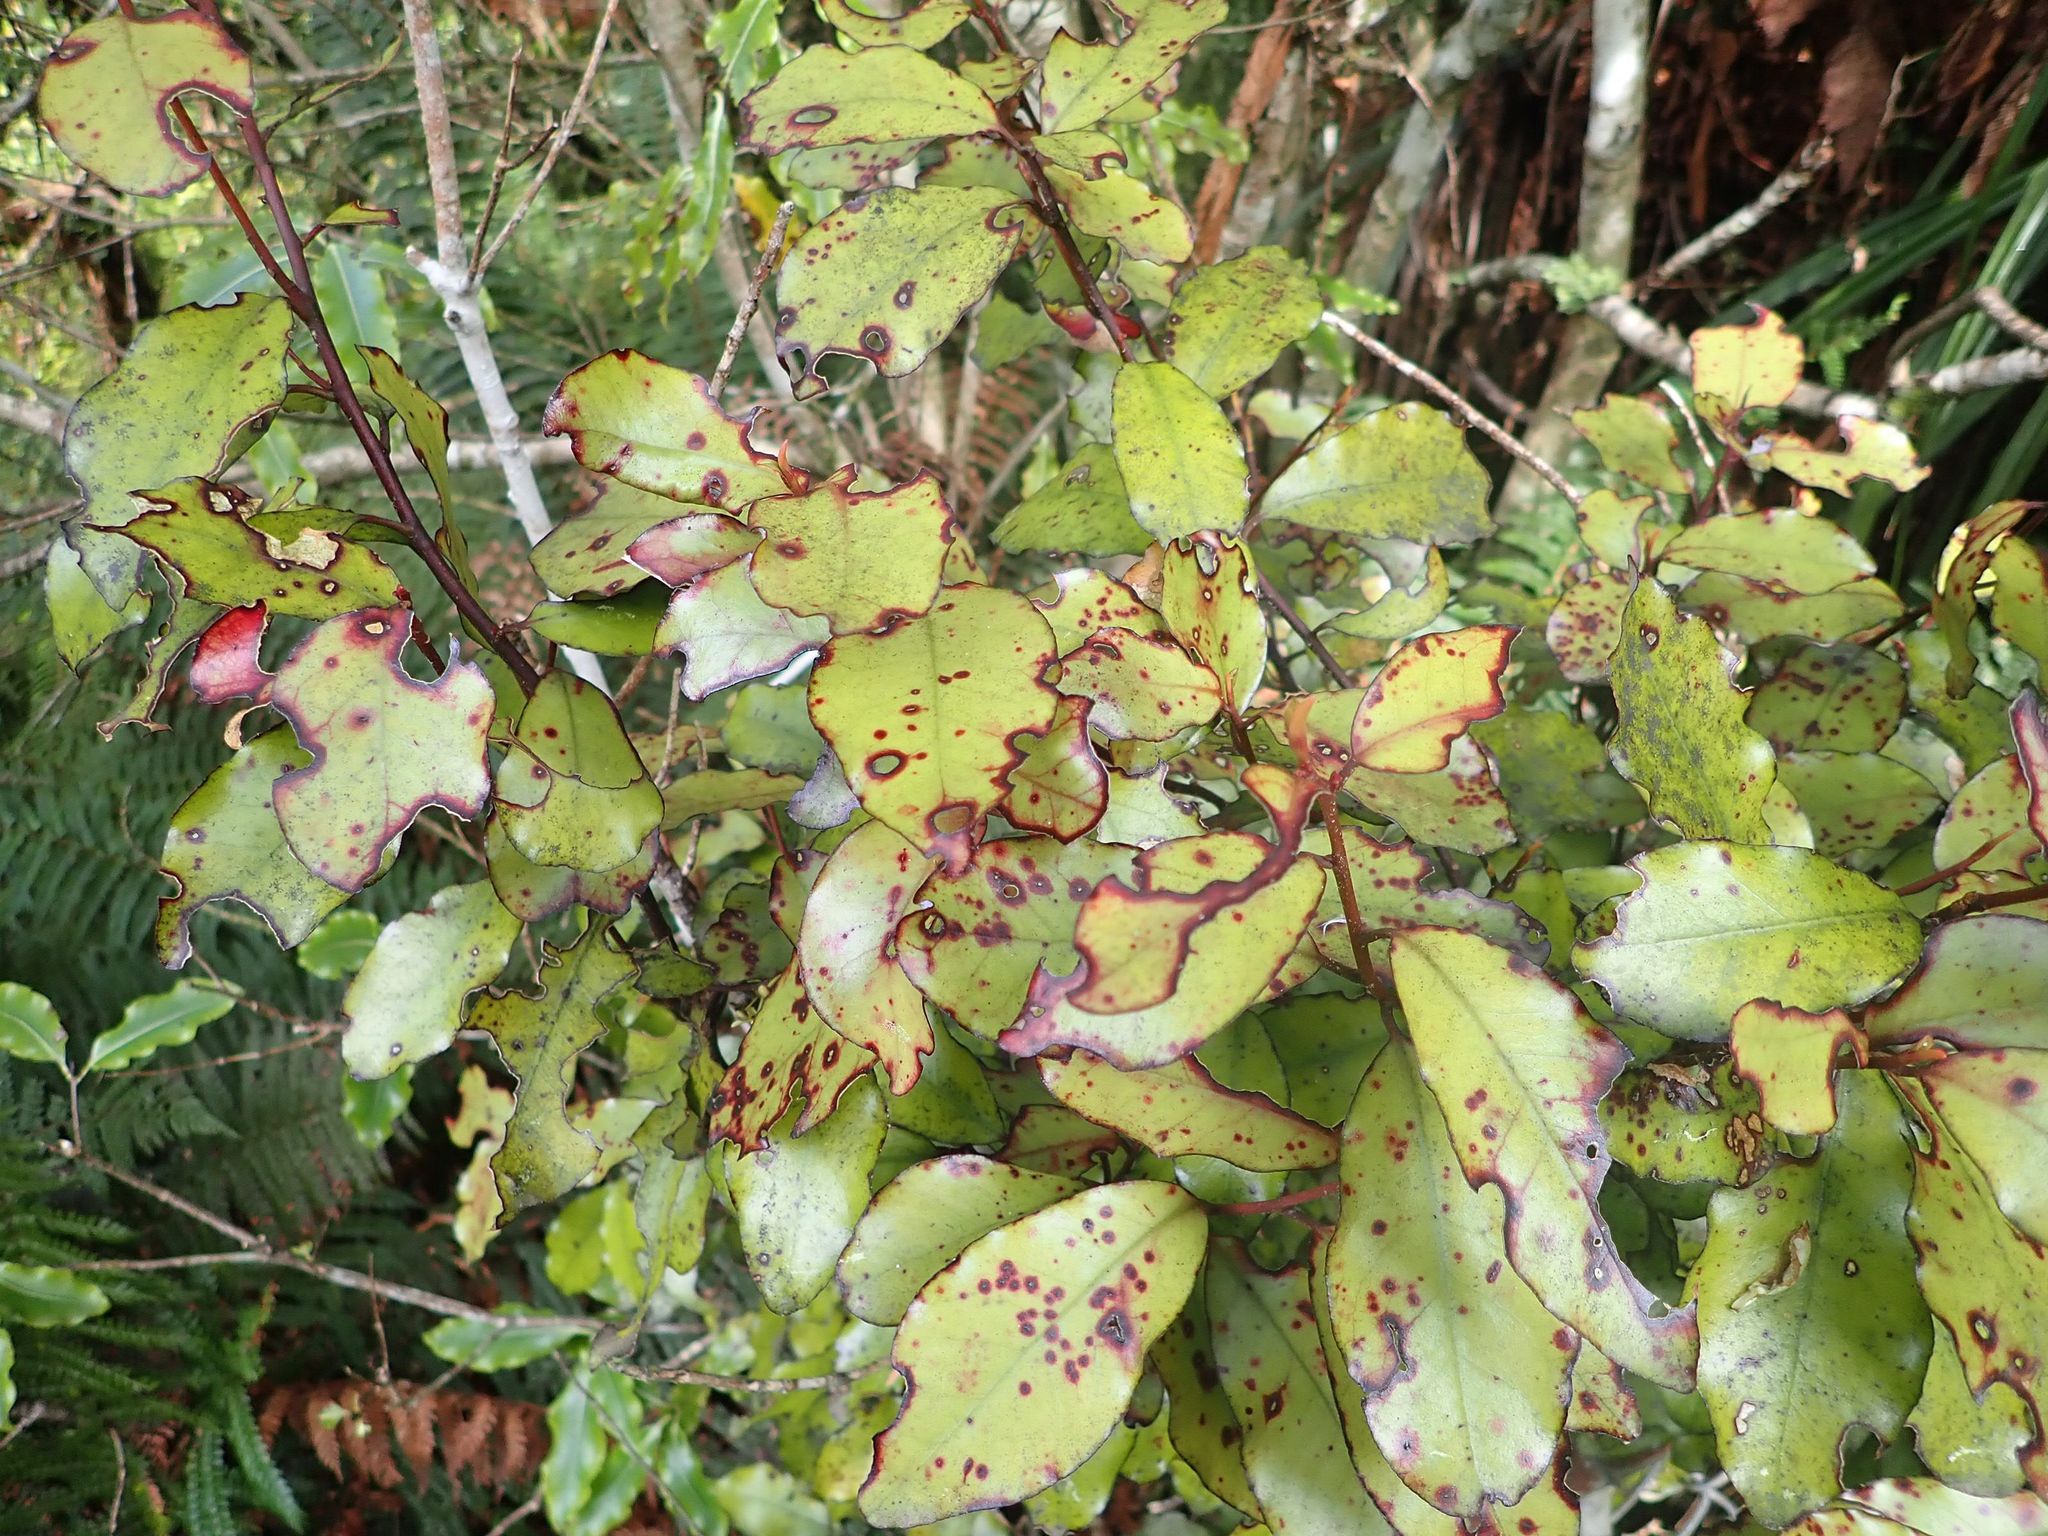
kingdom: Plantae
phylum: Tracheophyta
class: Magnoliopsida
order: Canellales
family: Winteraceae
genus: Pseudowintera
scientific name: Pseudowintera colorata
